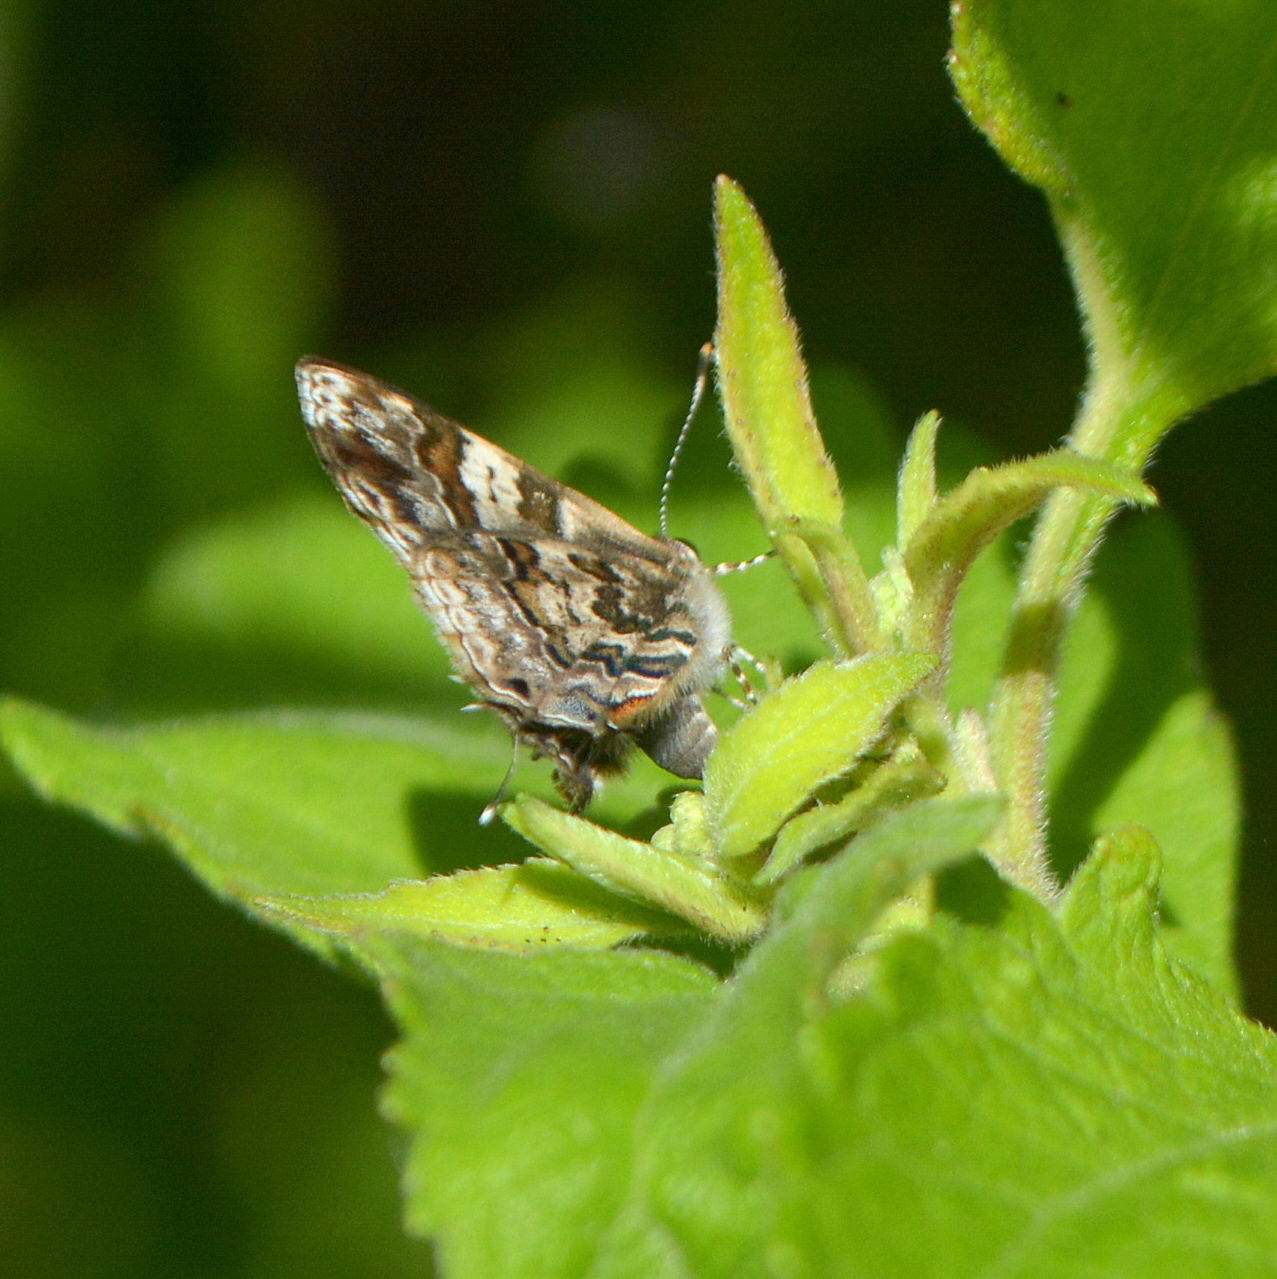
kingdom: Animalia
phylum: Arthropoda
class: Insecta
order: Lepidoptera
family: Lycaenidae
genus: Aubergina
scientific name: Aubergina vanessoides
